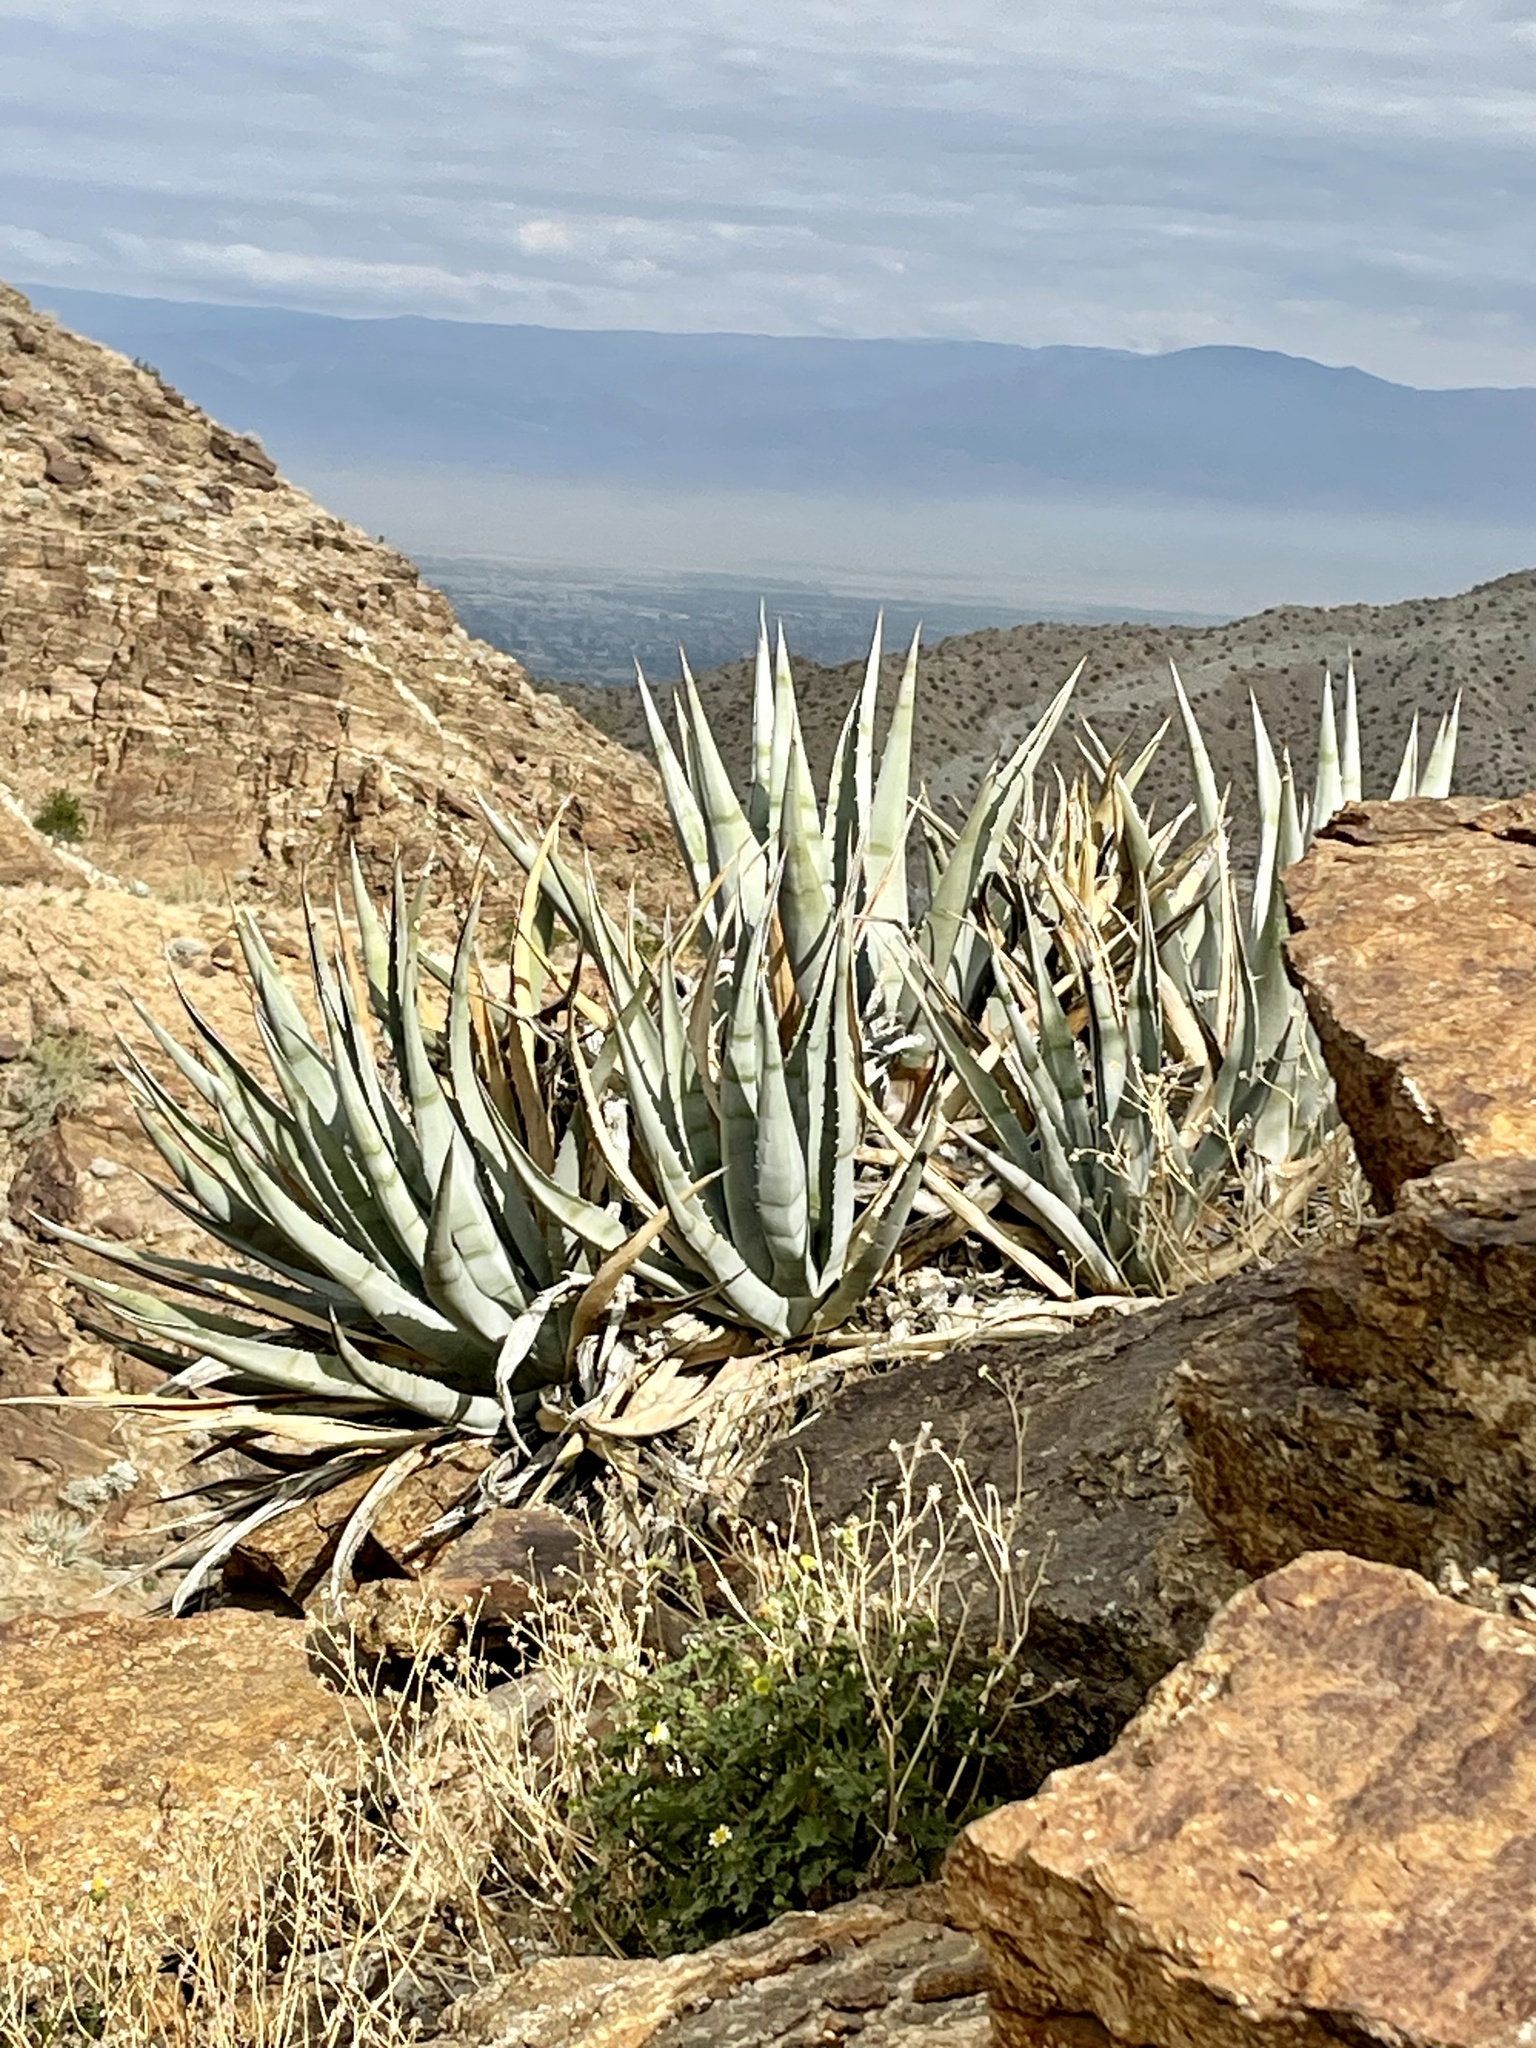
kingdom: Plantae
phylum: Tracheophyta
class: Liliopsida
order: Asparagales
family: Asparagaceae
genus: Agave
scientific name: Agave deserti
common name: Desert agave
